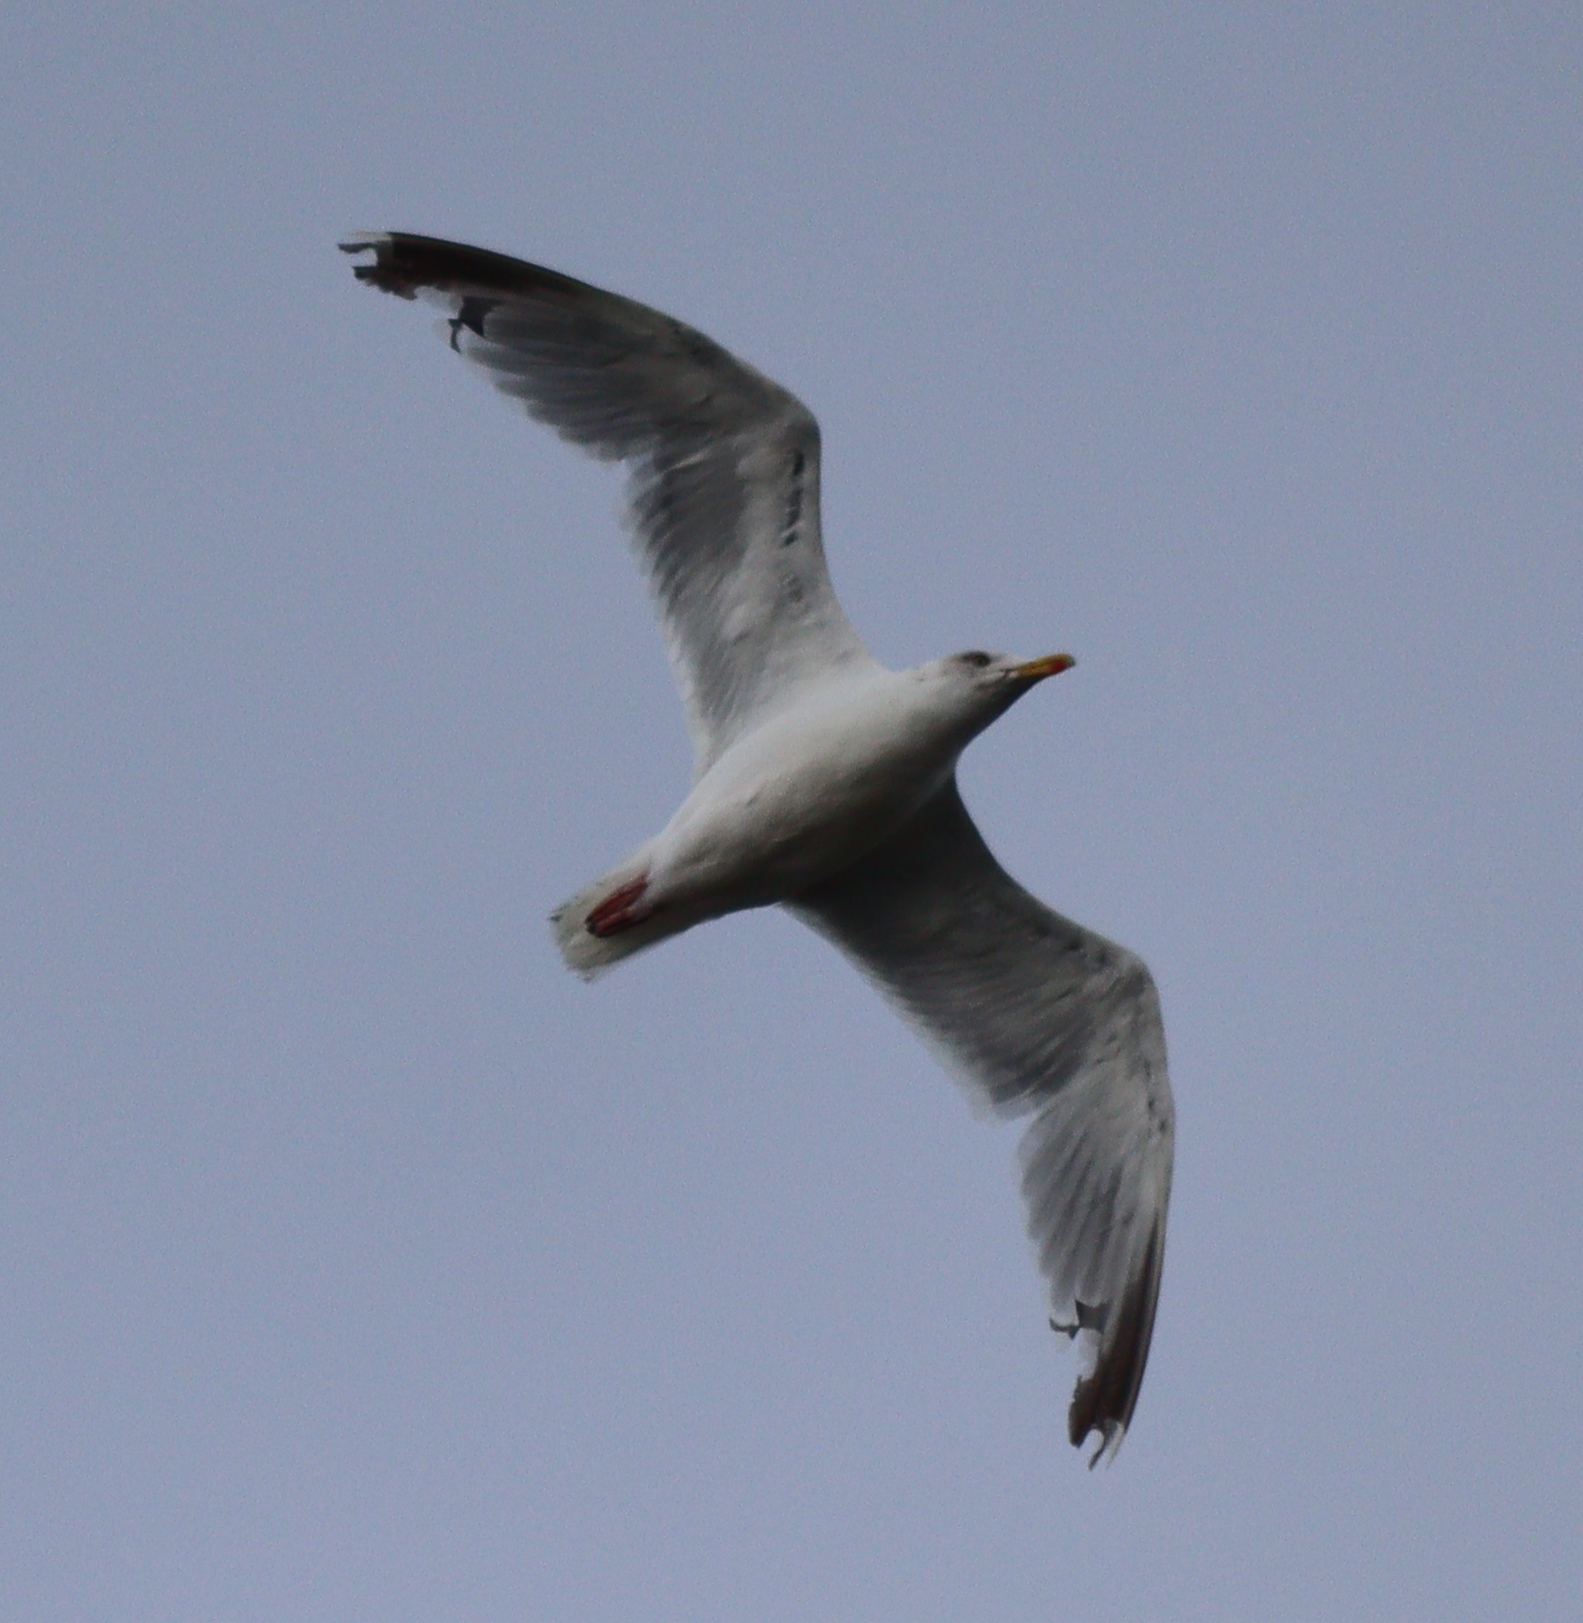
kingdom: Animalia
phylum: Chordata
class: Aves
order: Charadriiformes
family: Laridae
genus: Larus
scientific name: Larus argentatus
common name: Herring gull
